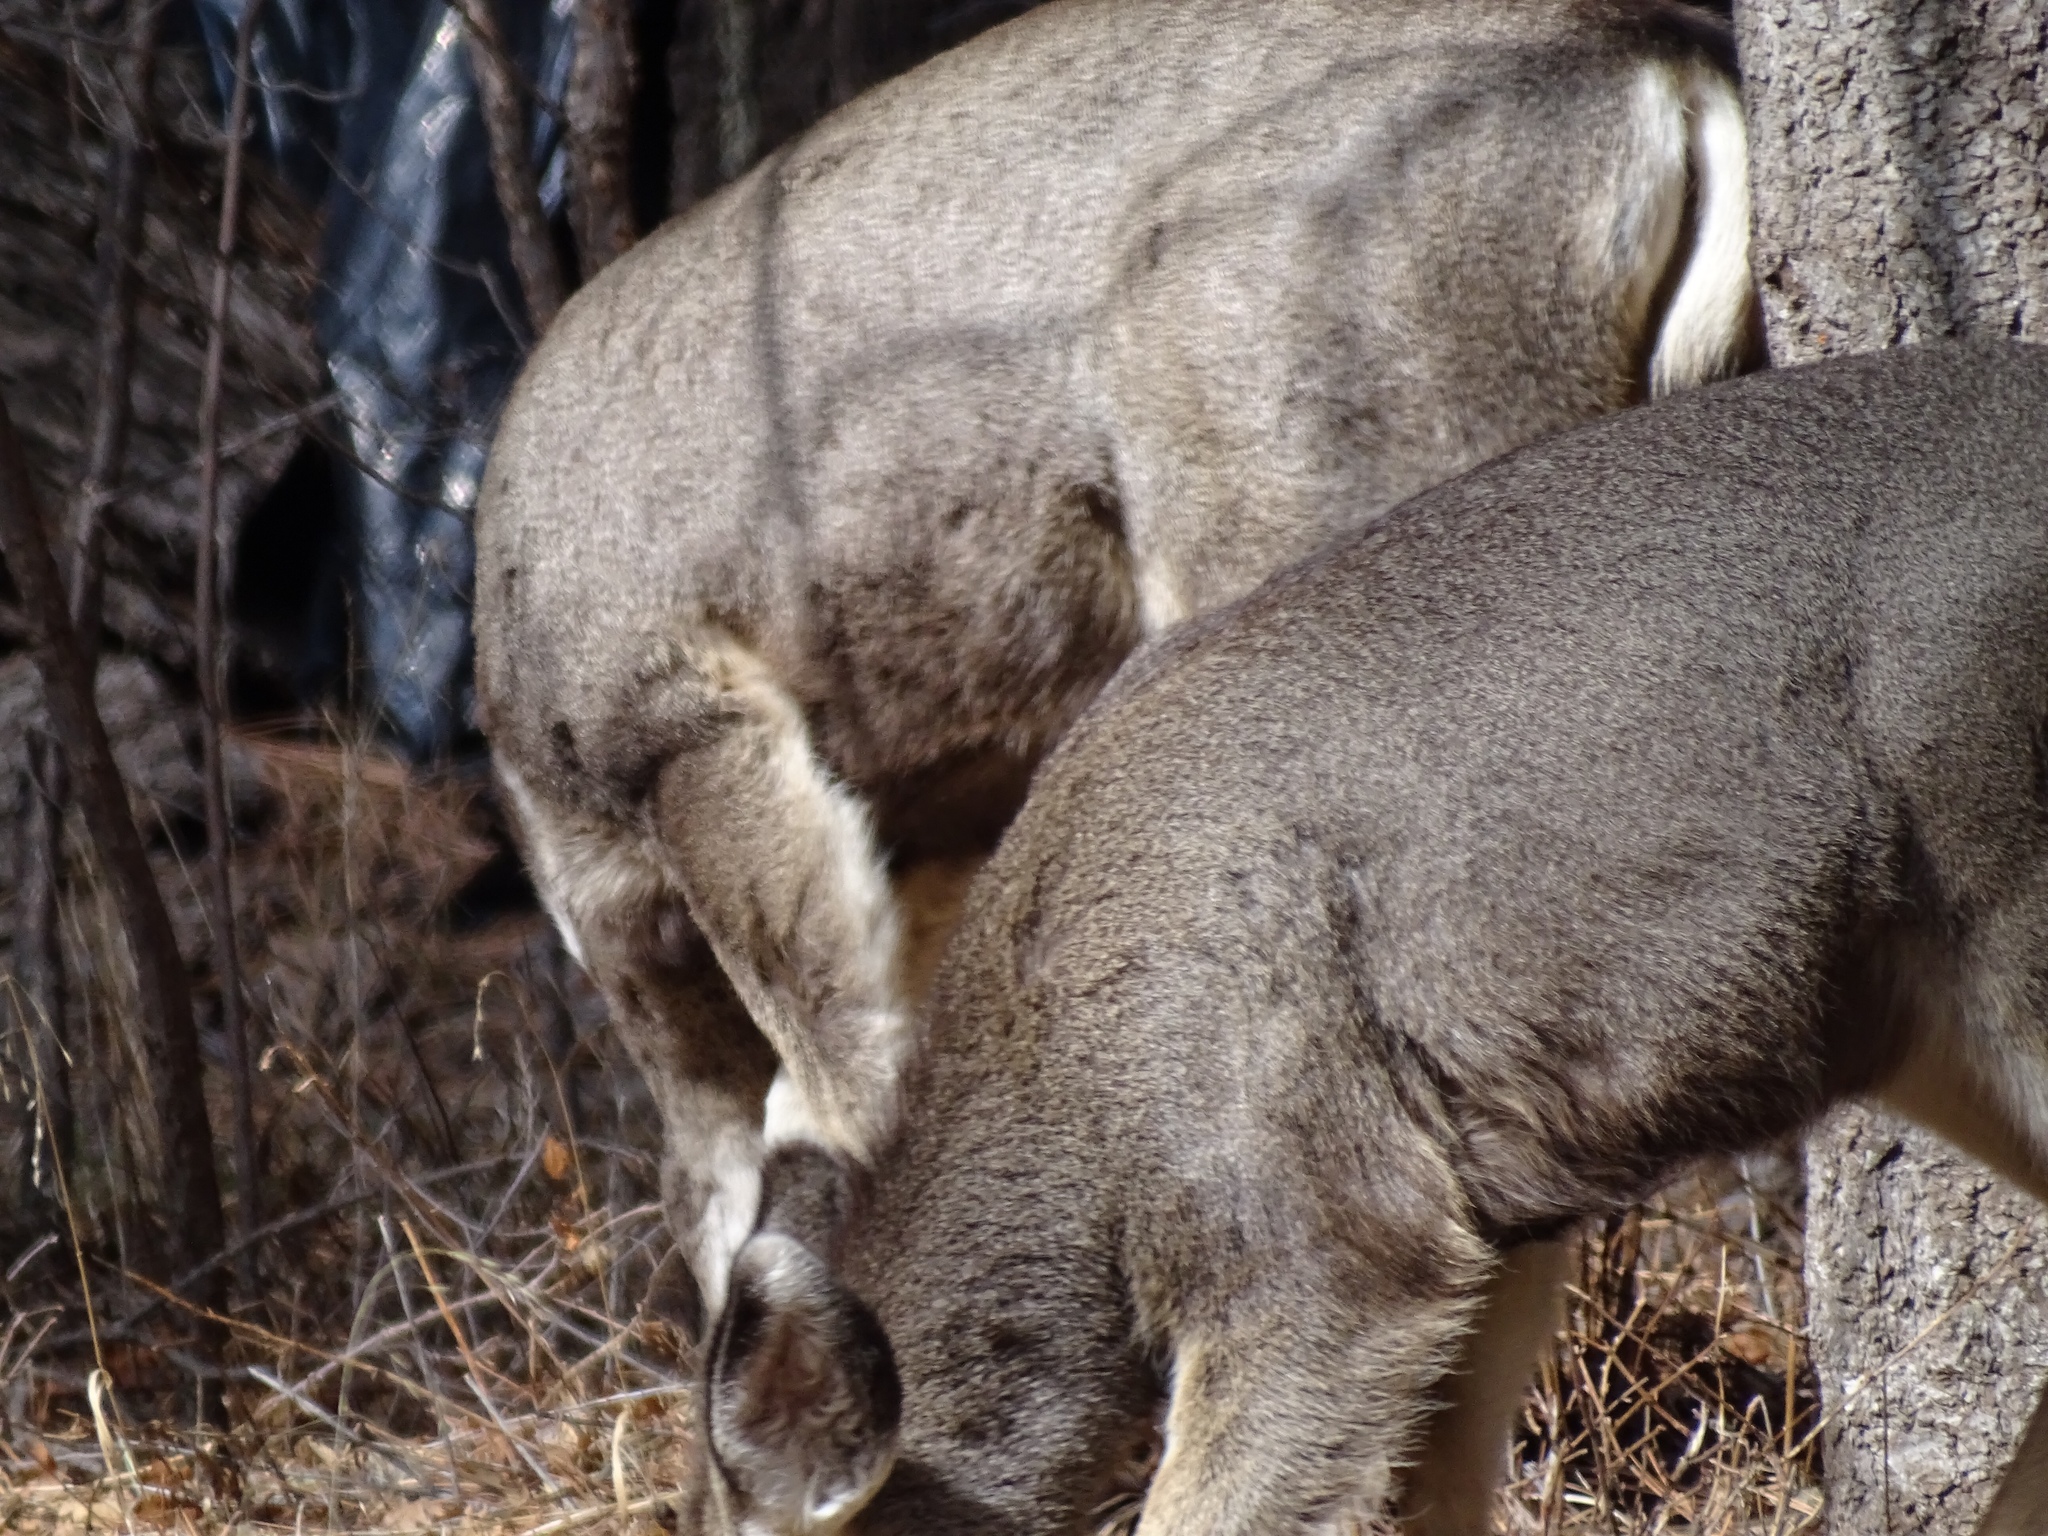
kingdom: Animalia
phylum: Chordata
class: Mammalia
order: Artiodactyla
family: Cervidae
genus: Odocoileus
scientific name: Odocoileus hemionus
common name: Mule deer
